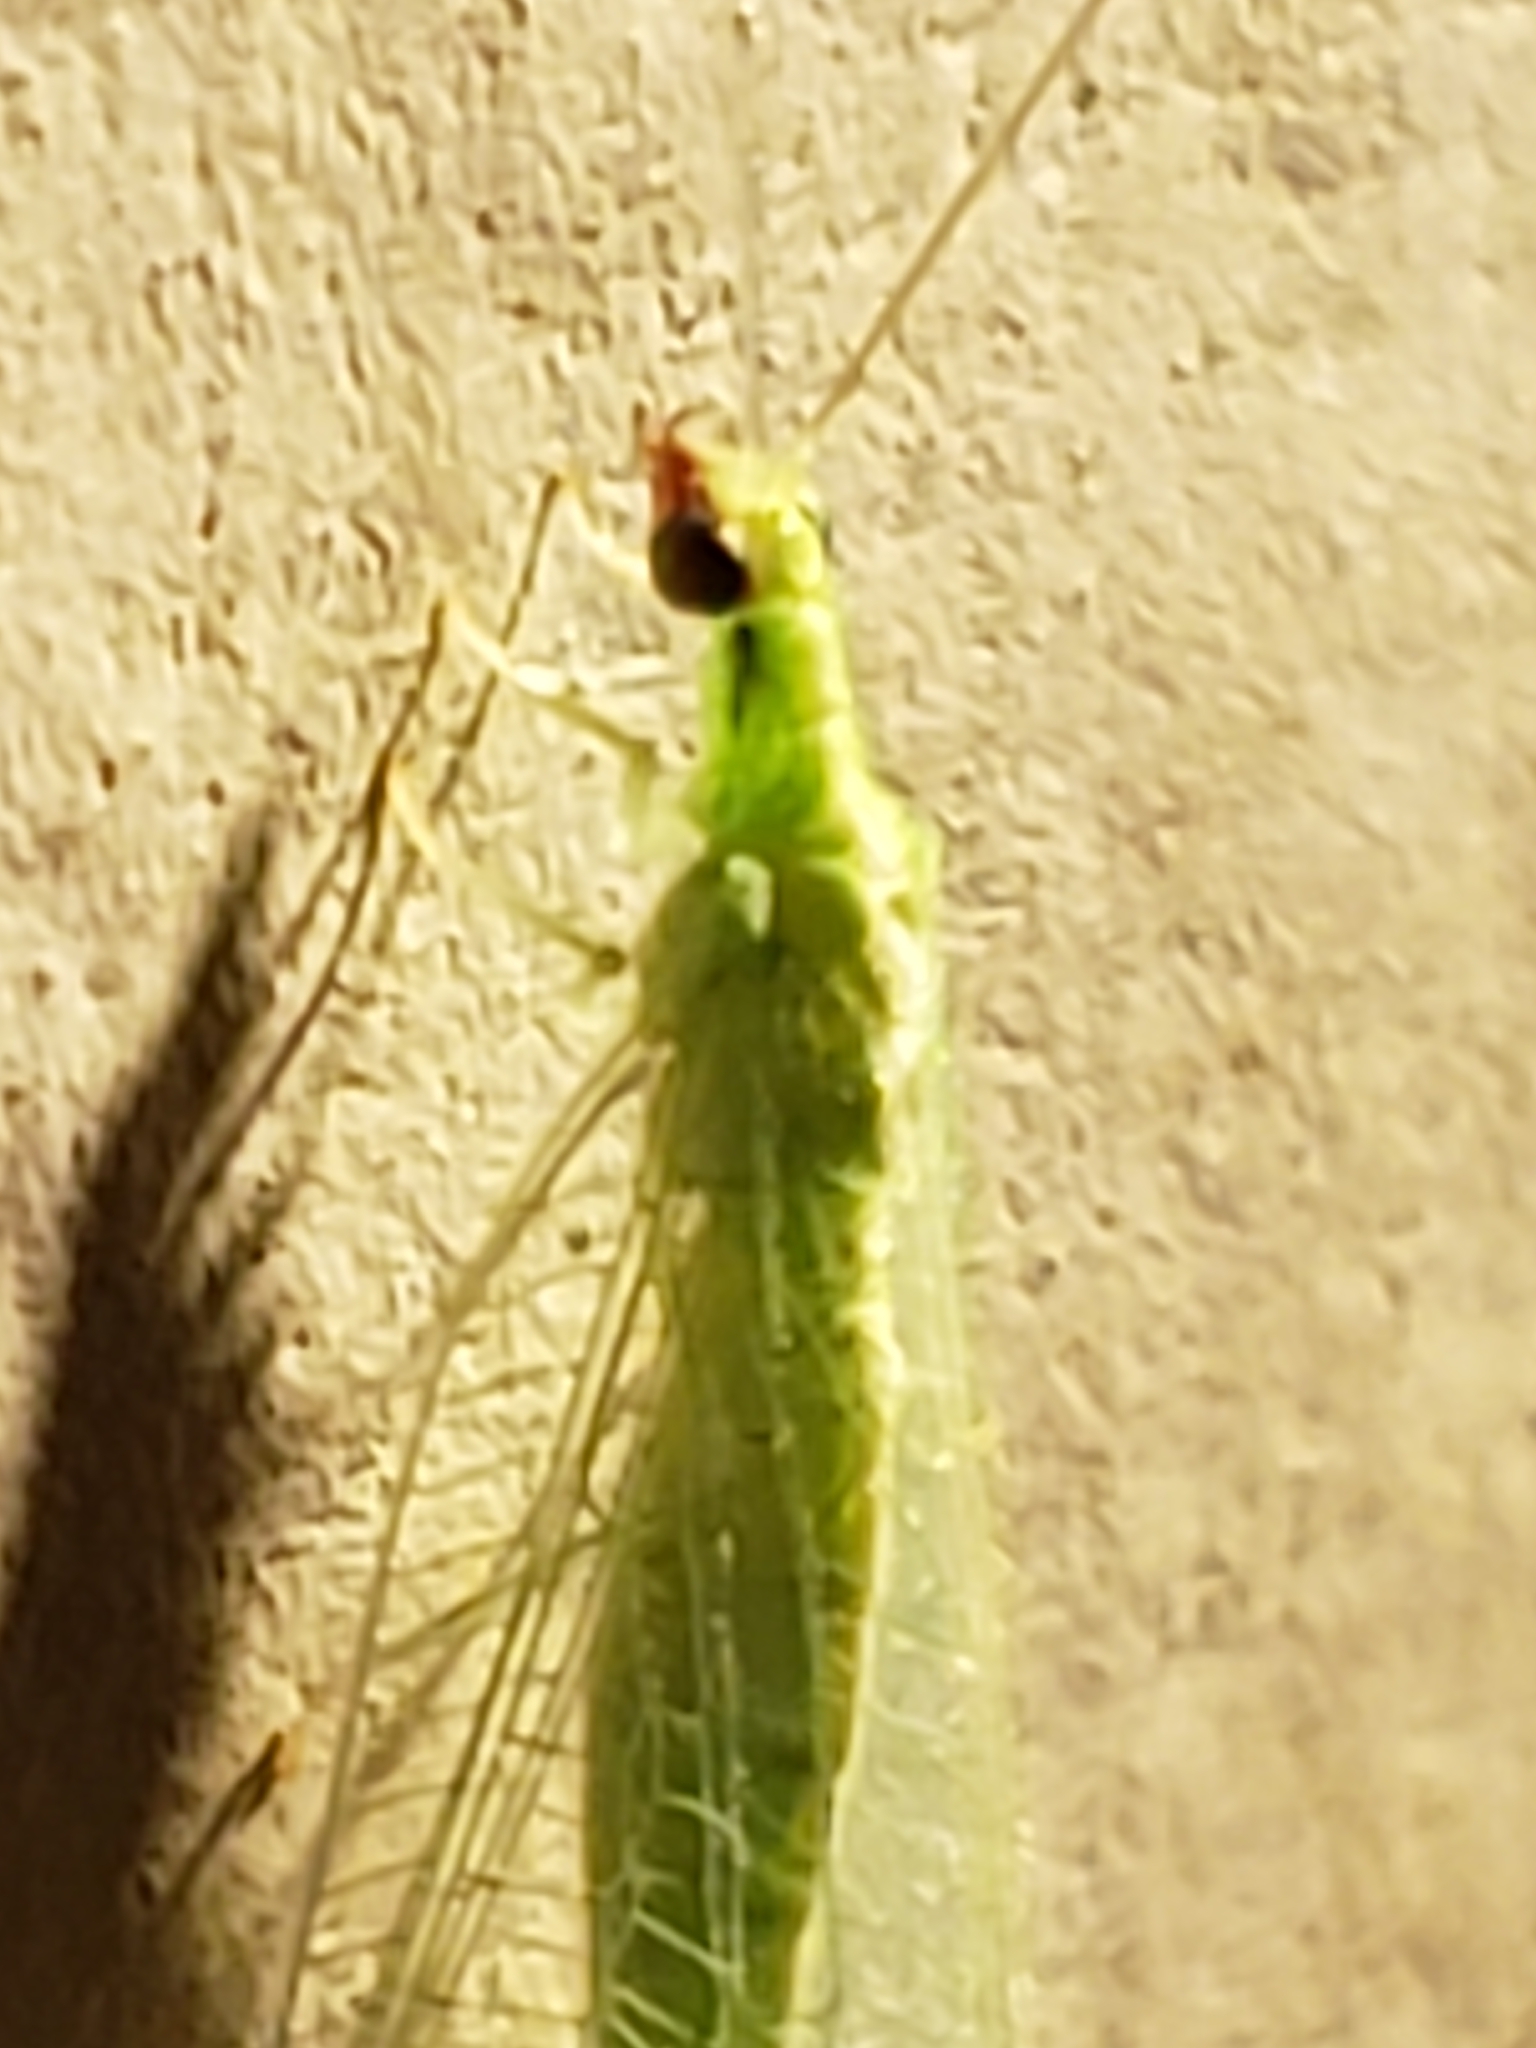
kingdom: Animalia
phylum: Arthropoda
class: Insecta
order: Neuroptera
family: Chrysopidae
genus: Chrysoperla
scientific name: Chrysoperla rufilabris
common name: Red-lipped green lacewing
